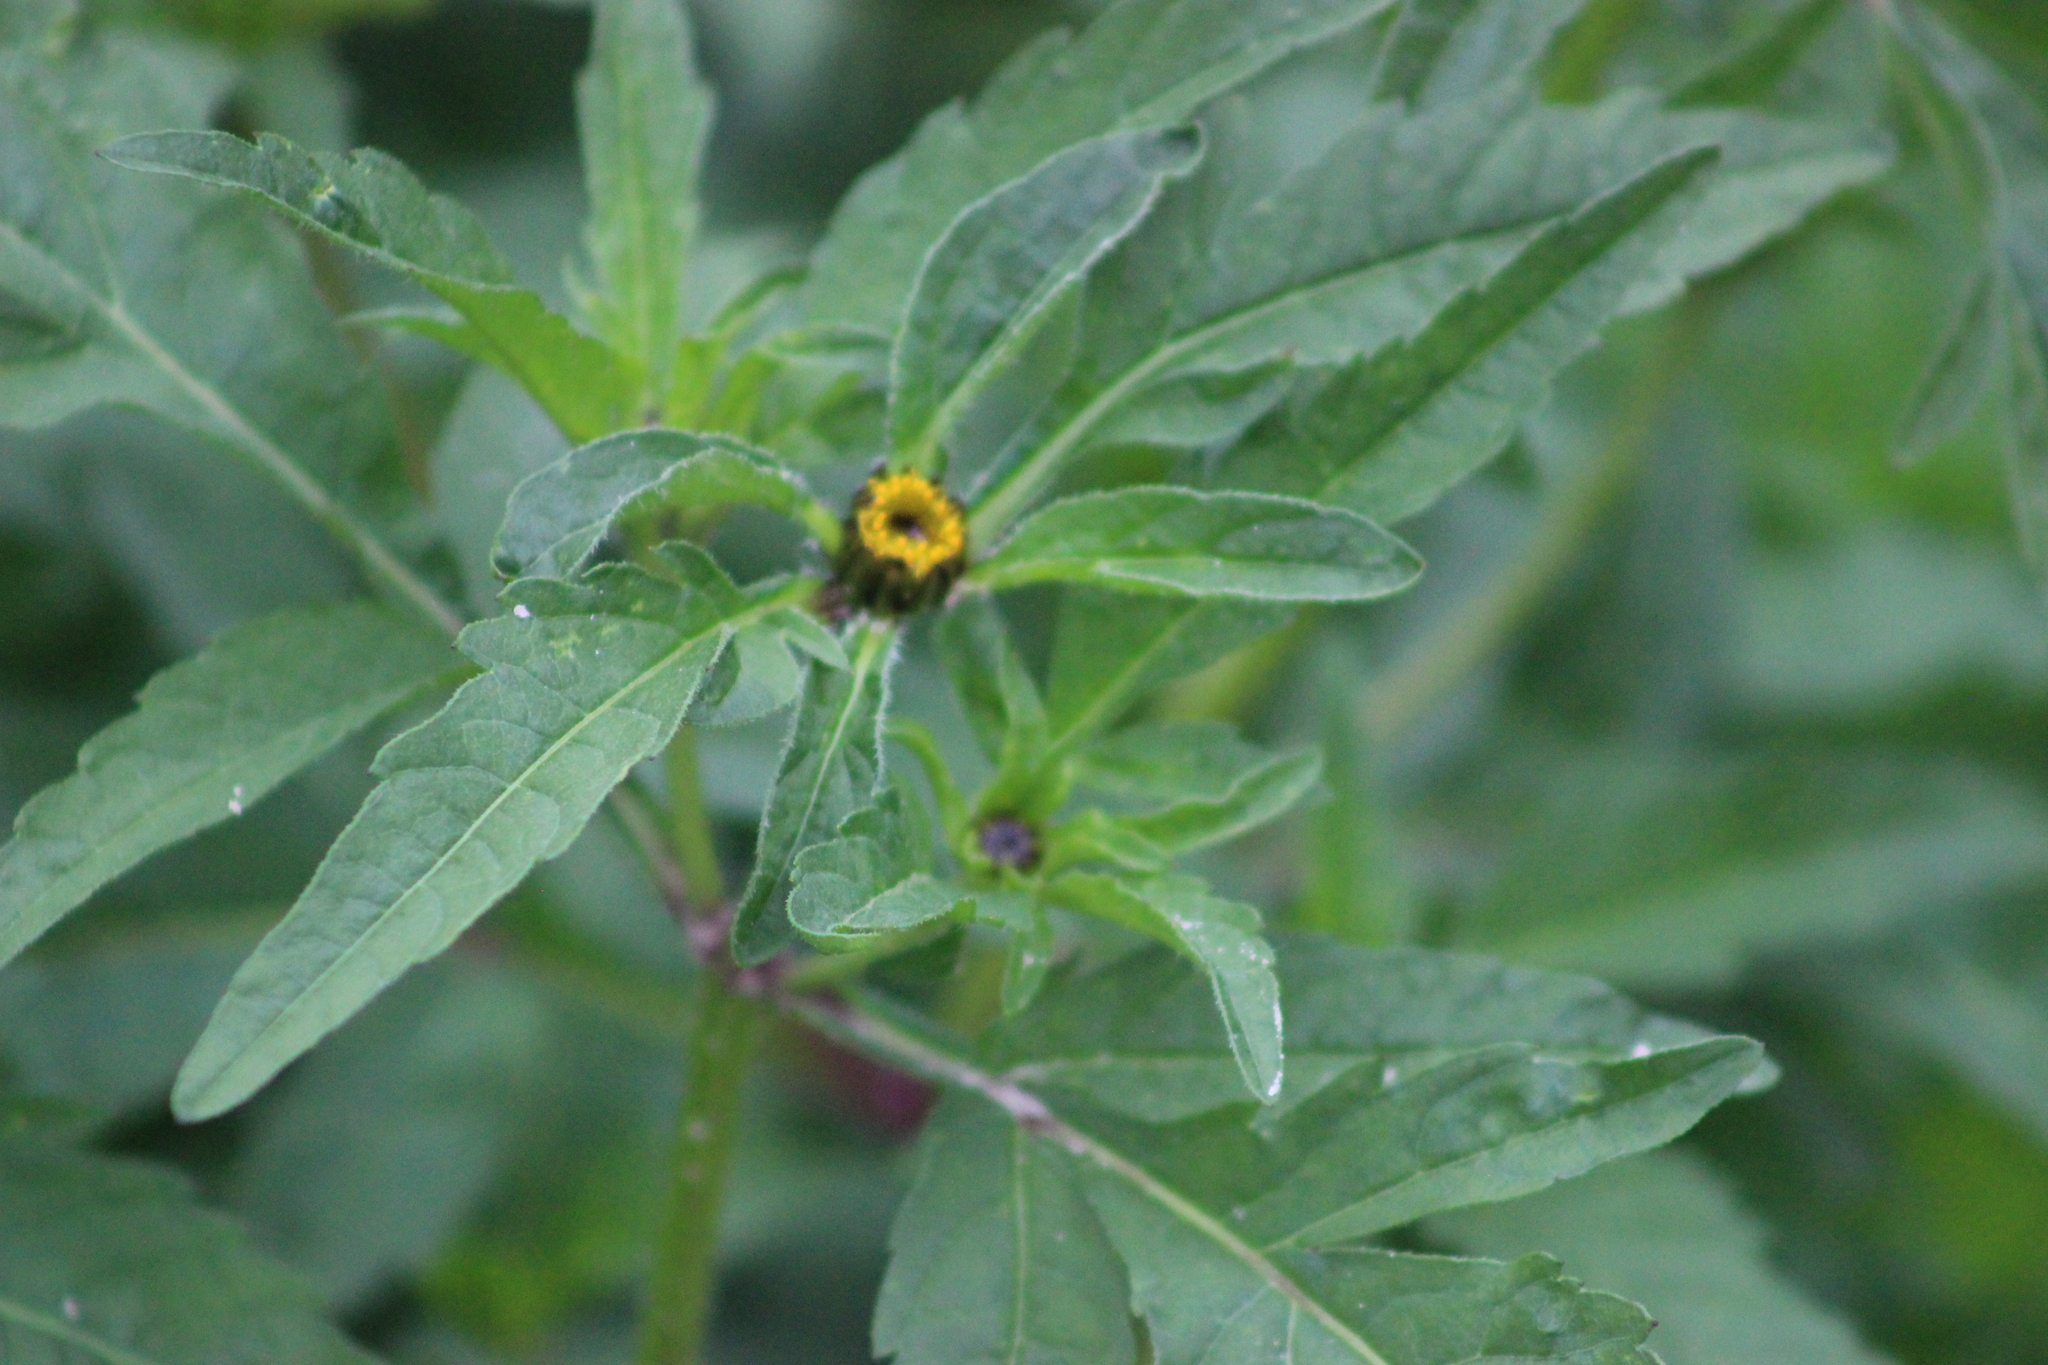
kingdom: Plantae
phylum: Tracheophyta
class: Magnoliopsida
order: Asterales
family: Asteraceae
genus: Bidens
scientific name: Bidens tripartita
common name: Trifid bur-marigold
